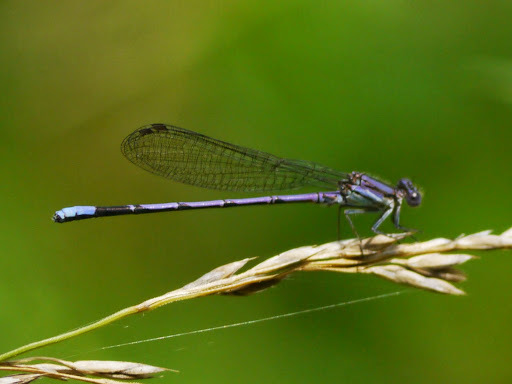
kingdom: Animalia
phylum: Arthropoda
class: Insecta
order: Odonata
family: Coenagrionidae
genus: Argia
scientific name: Argia fumipennis
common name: Variable dancer
